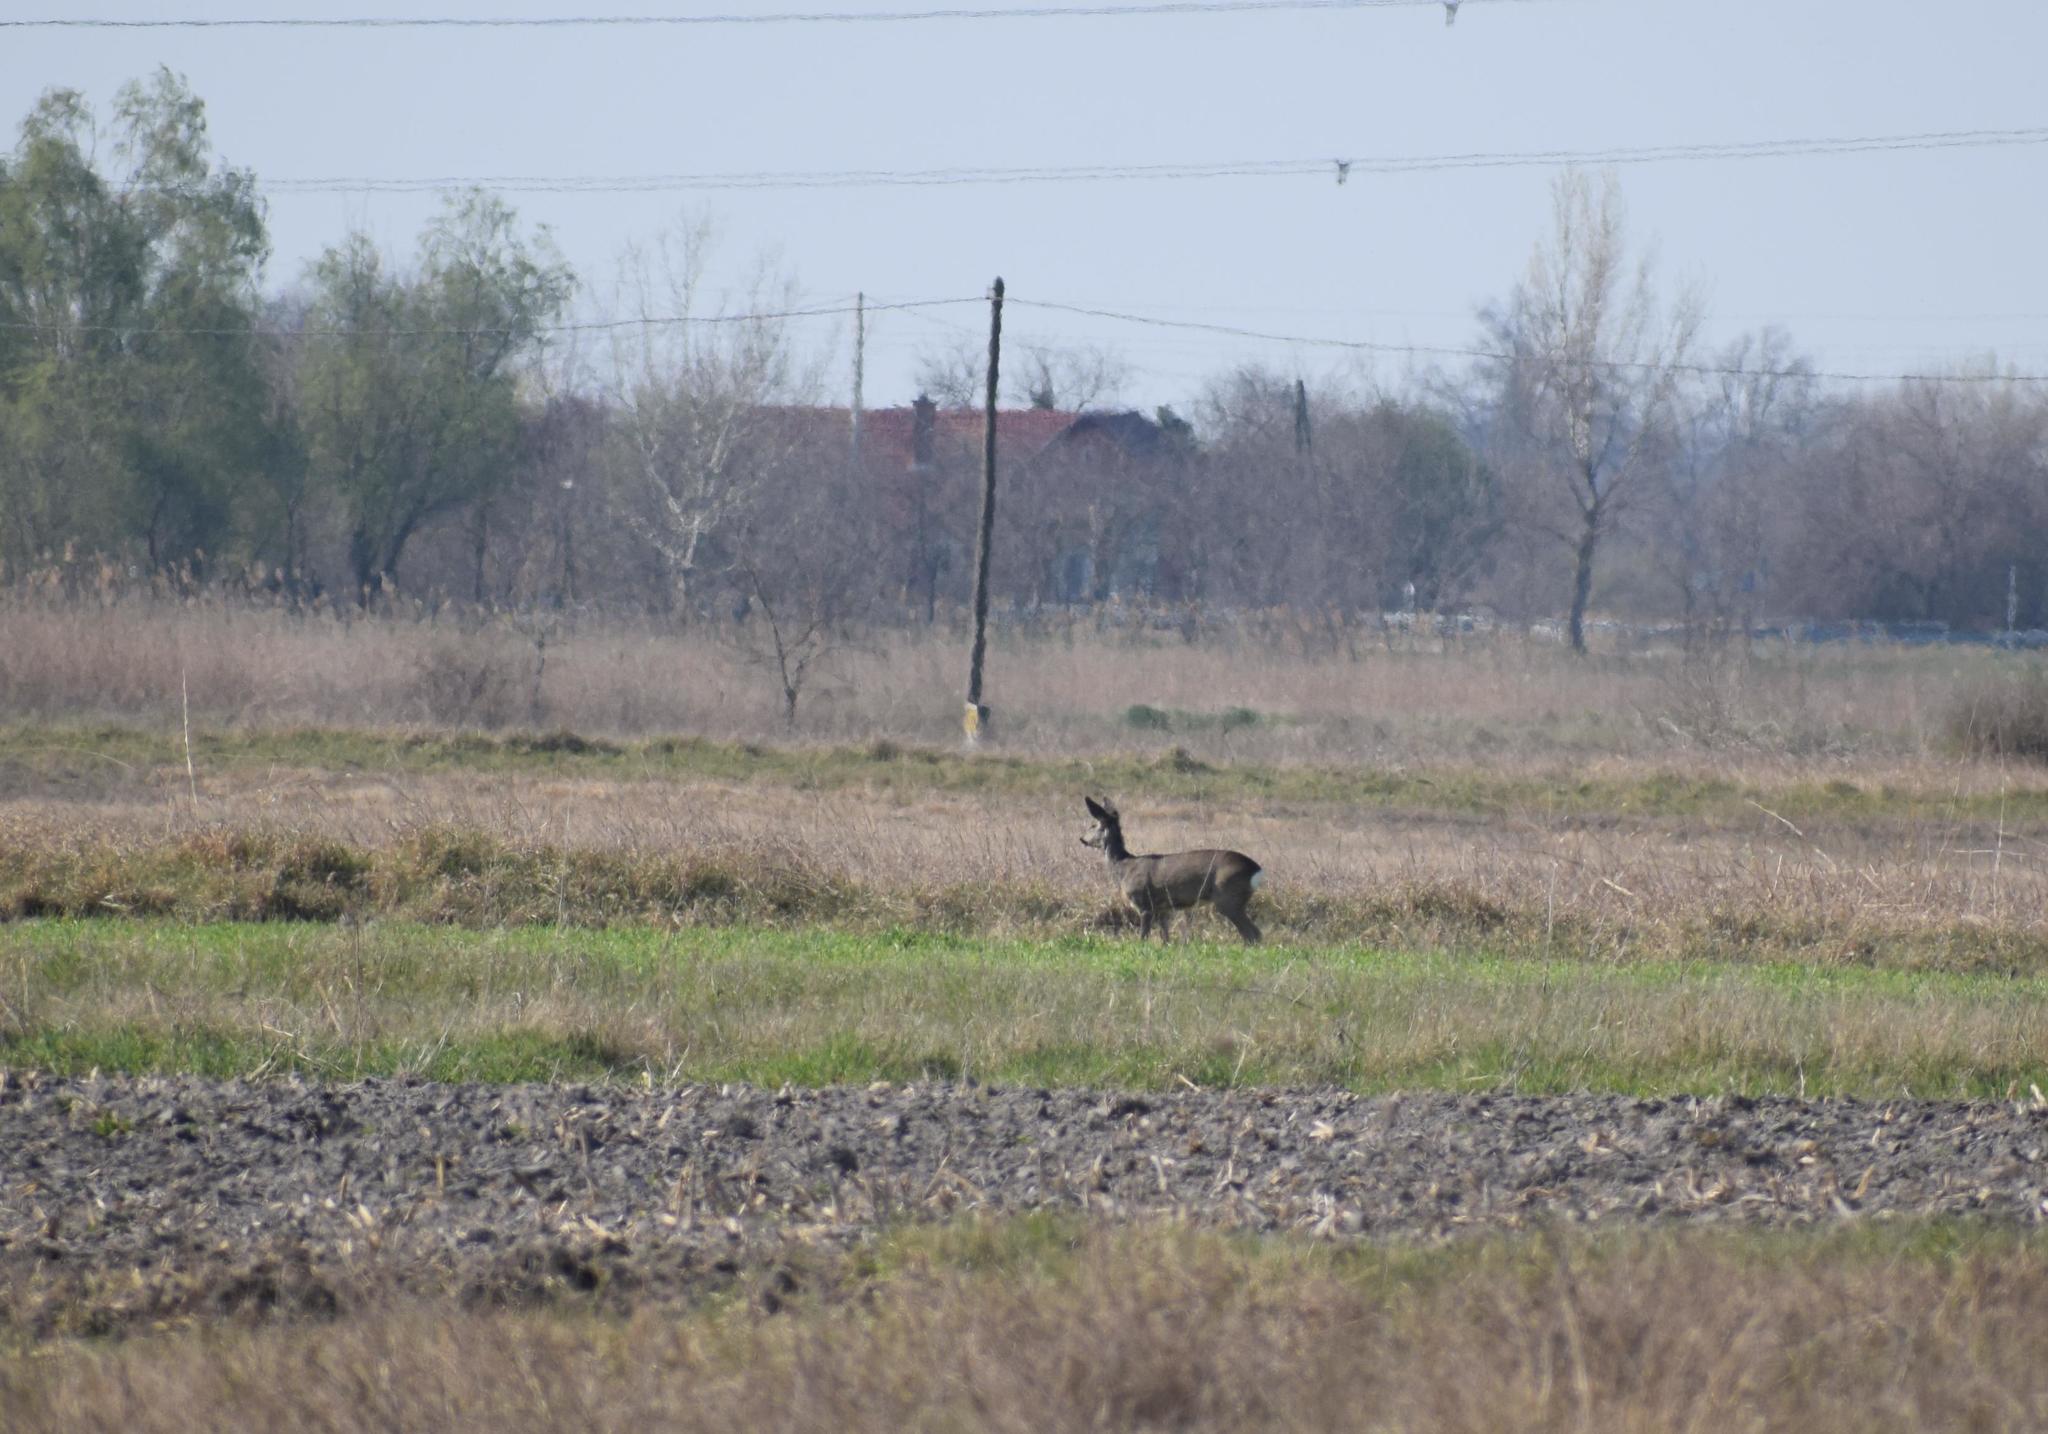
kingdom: Animalia
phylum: Chordata
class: Mammalia
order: Artiodactyla
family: Cervidae
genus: Capreolus
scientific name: Capreolus capreolus
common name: Western roe deer
